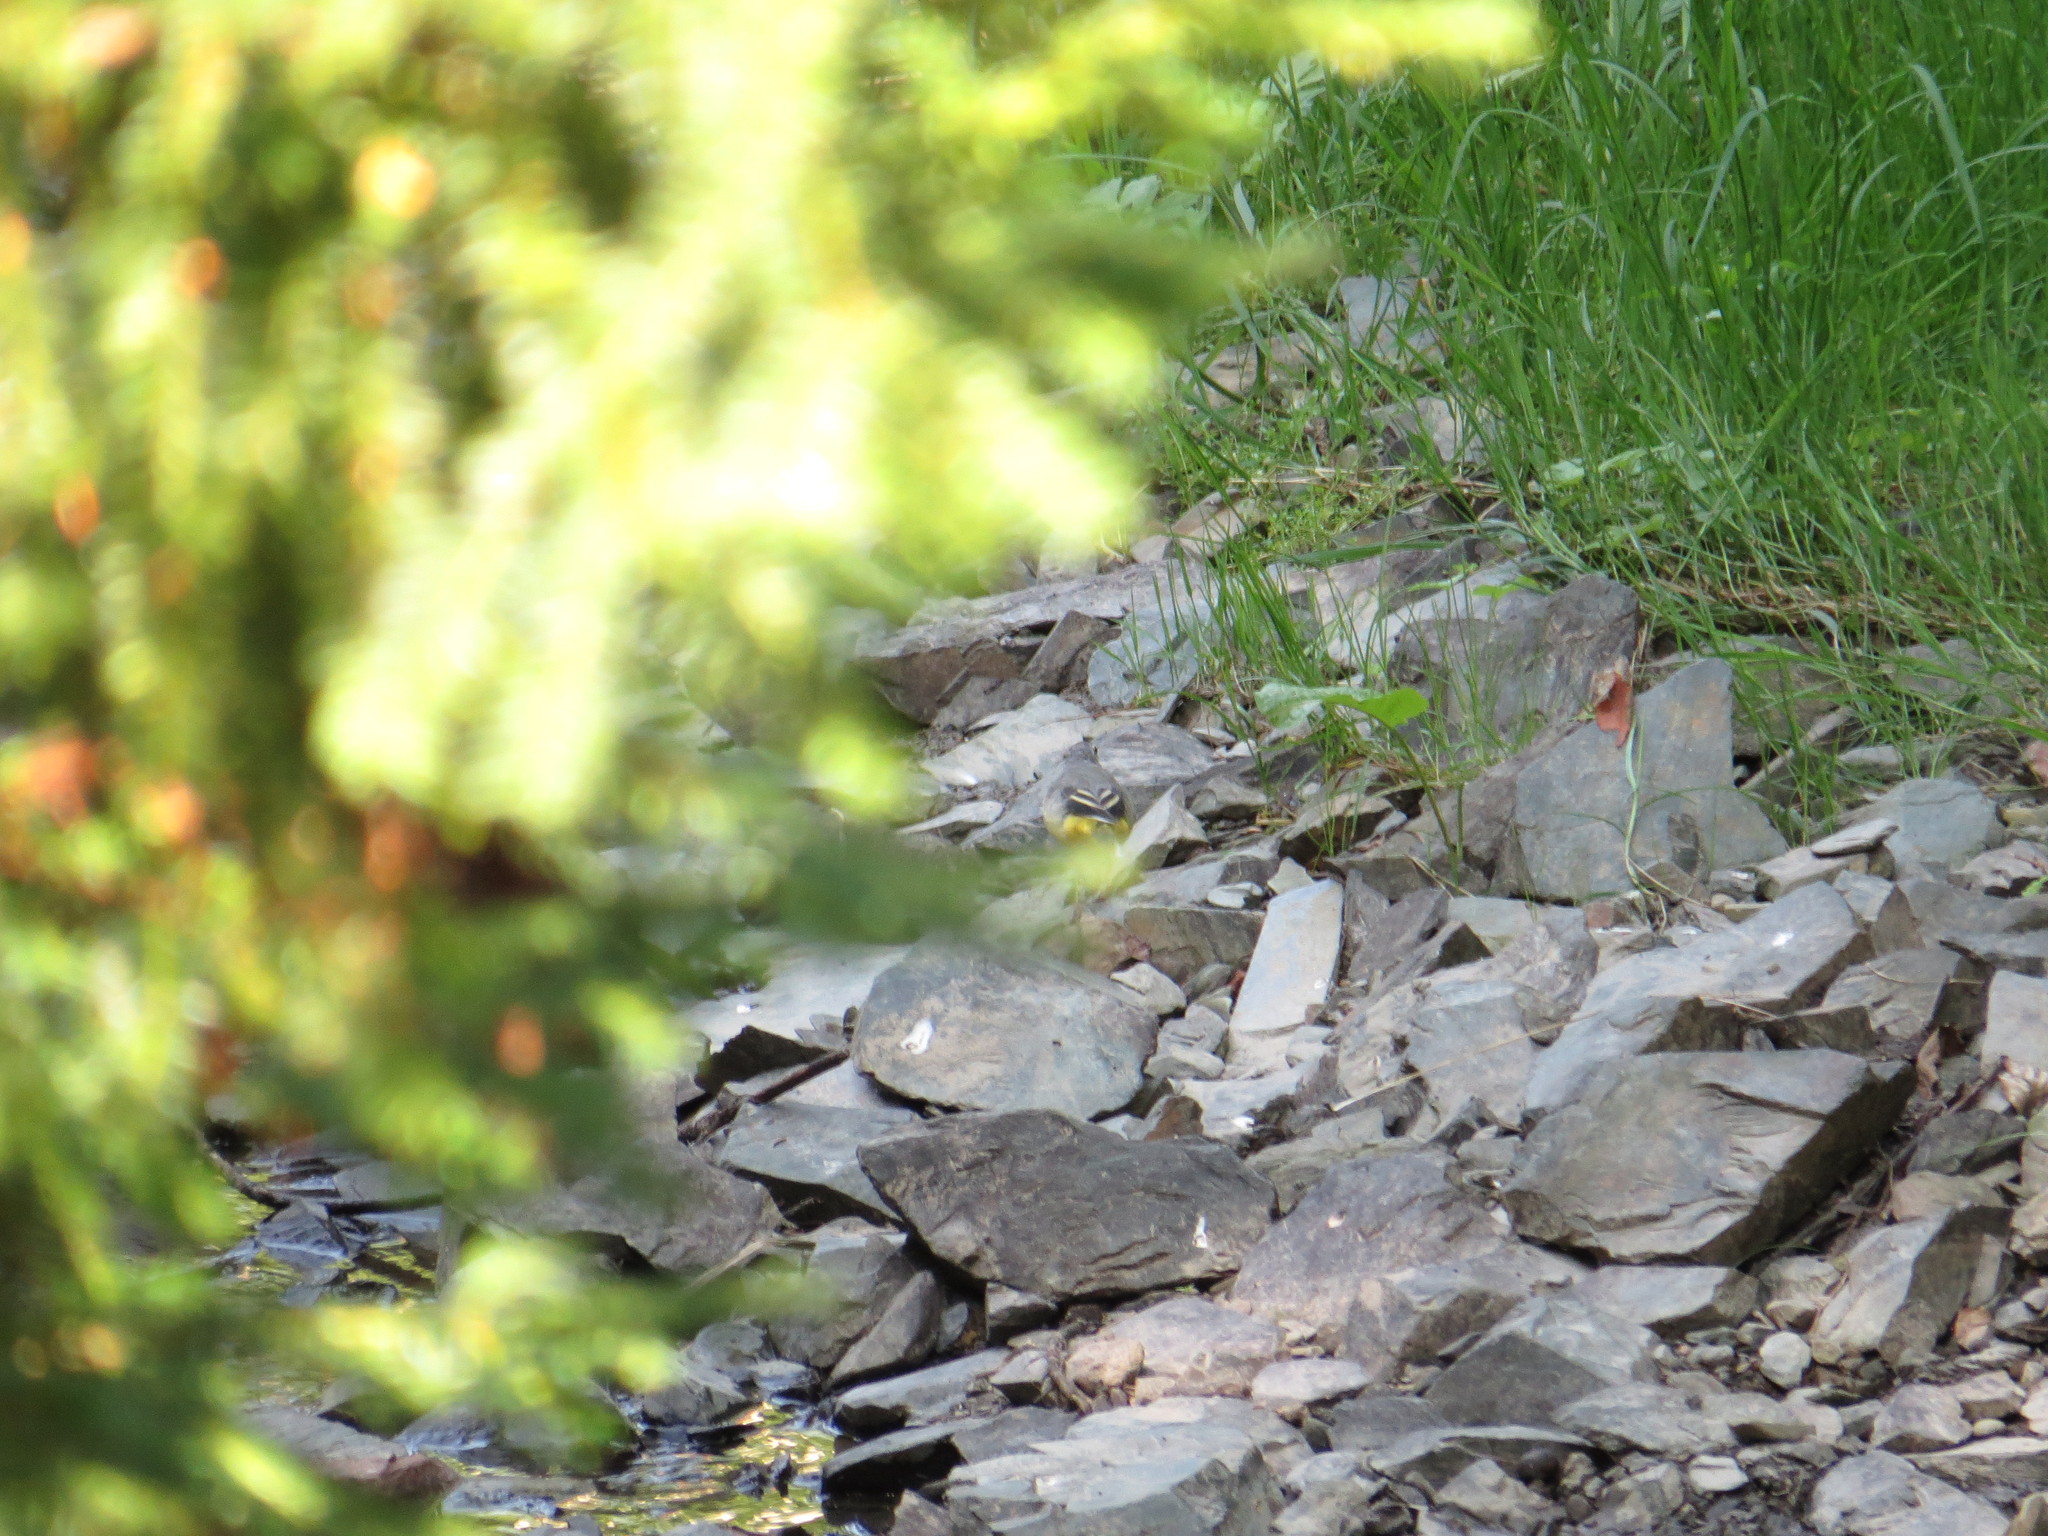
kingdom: Animalia
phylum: Chordata
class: Aves
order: Passeriformes
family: Motacillidae
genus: Motacilla
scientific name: Motacilla cinerea
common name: Grey wagtail
